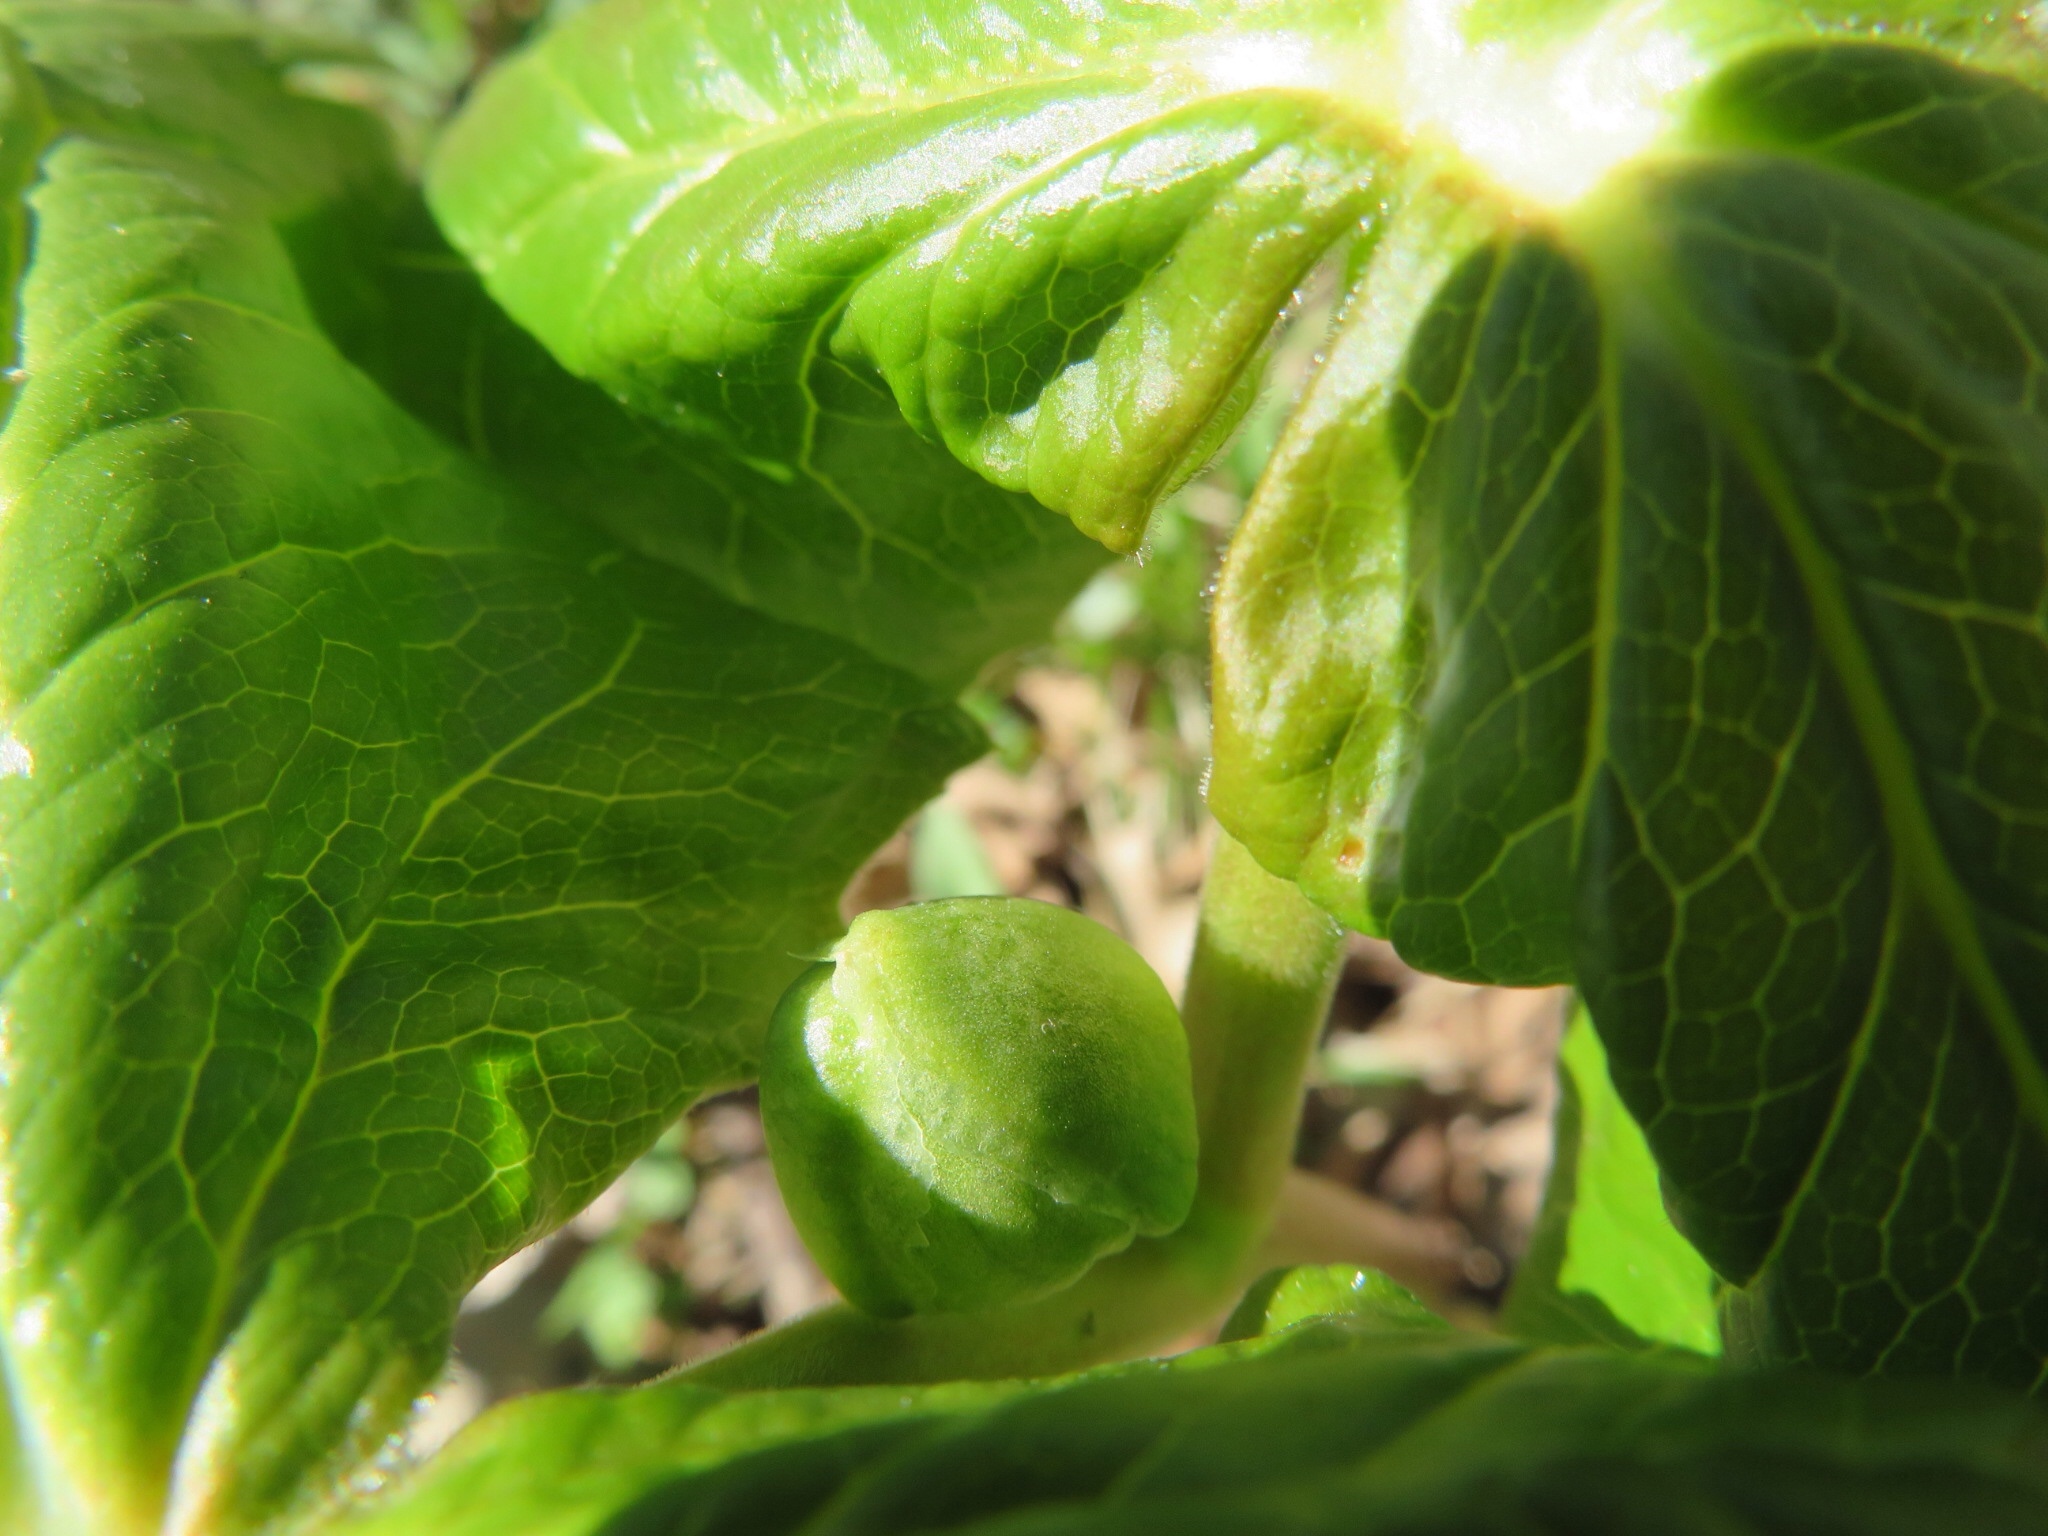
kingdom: Plantae
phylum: Tracheophyta
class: Magnoliopsida
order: Ranunculales
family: Berberidaceae
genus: Podophyllum
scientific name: Podophyllum peltatum
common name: Wild mandrake
